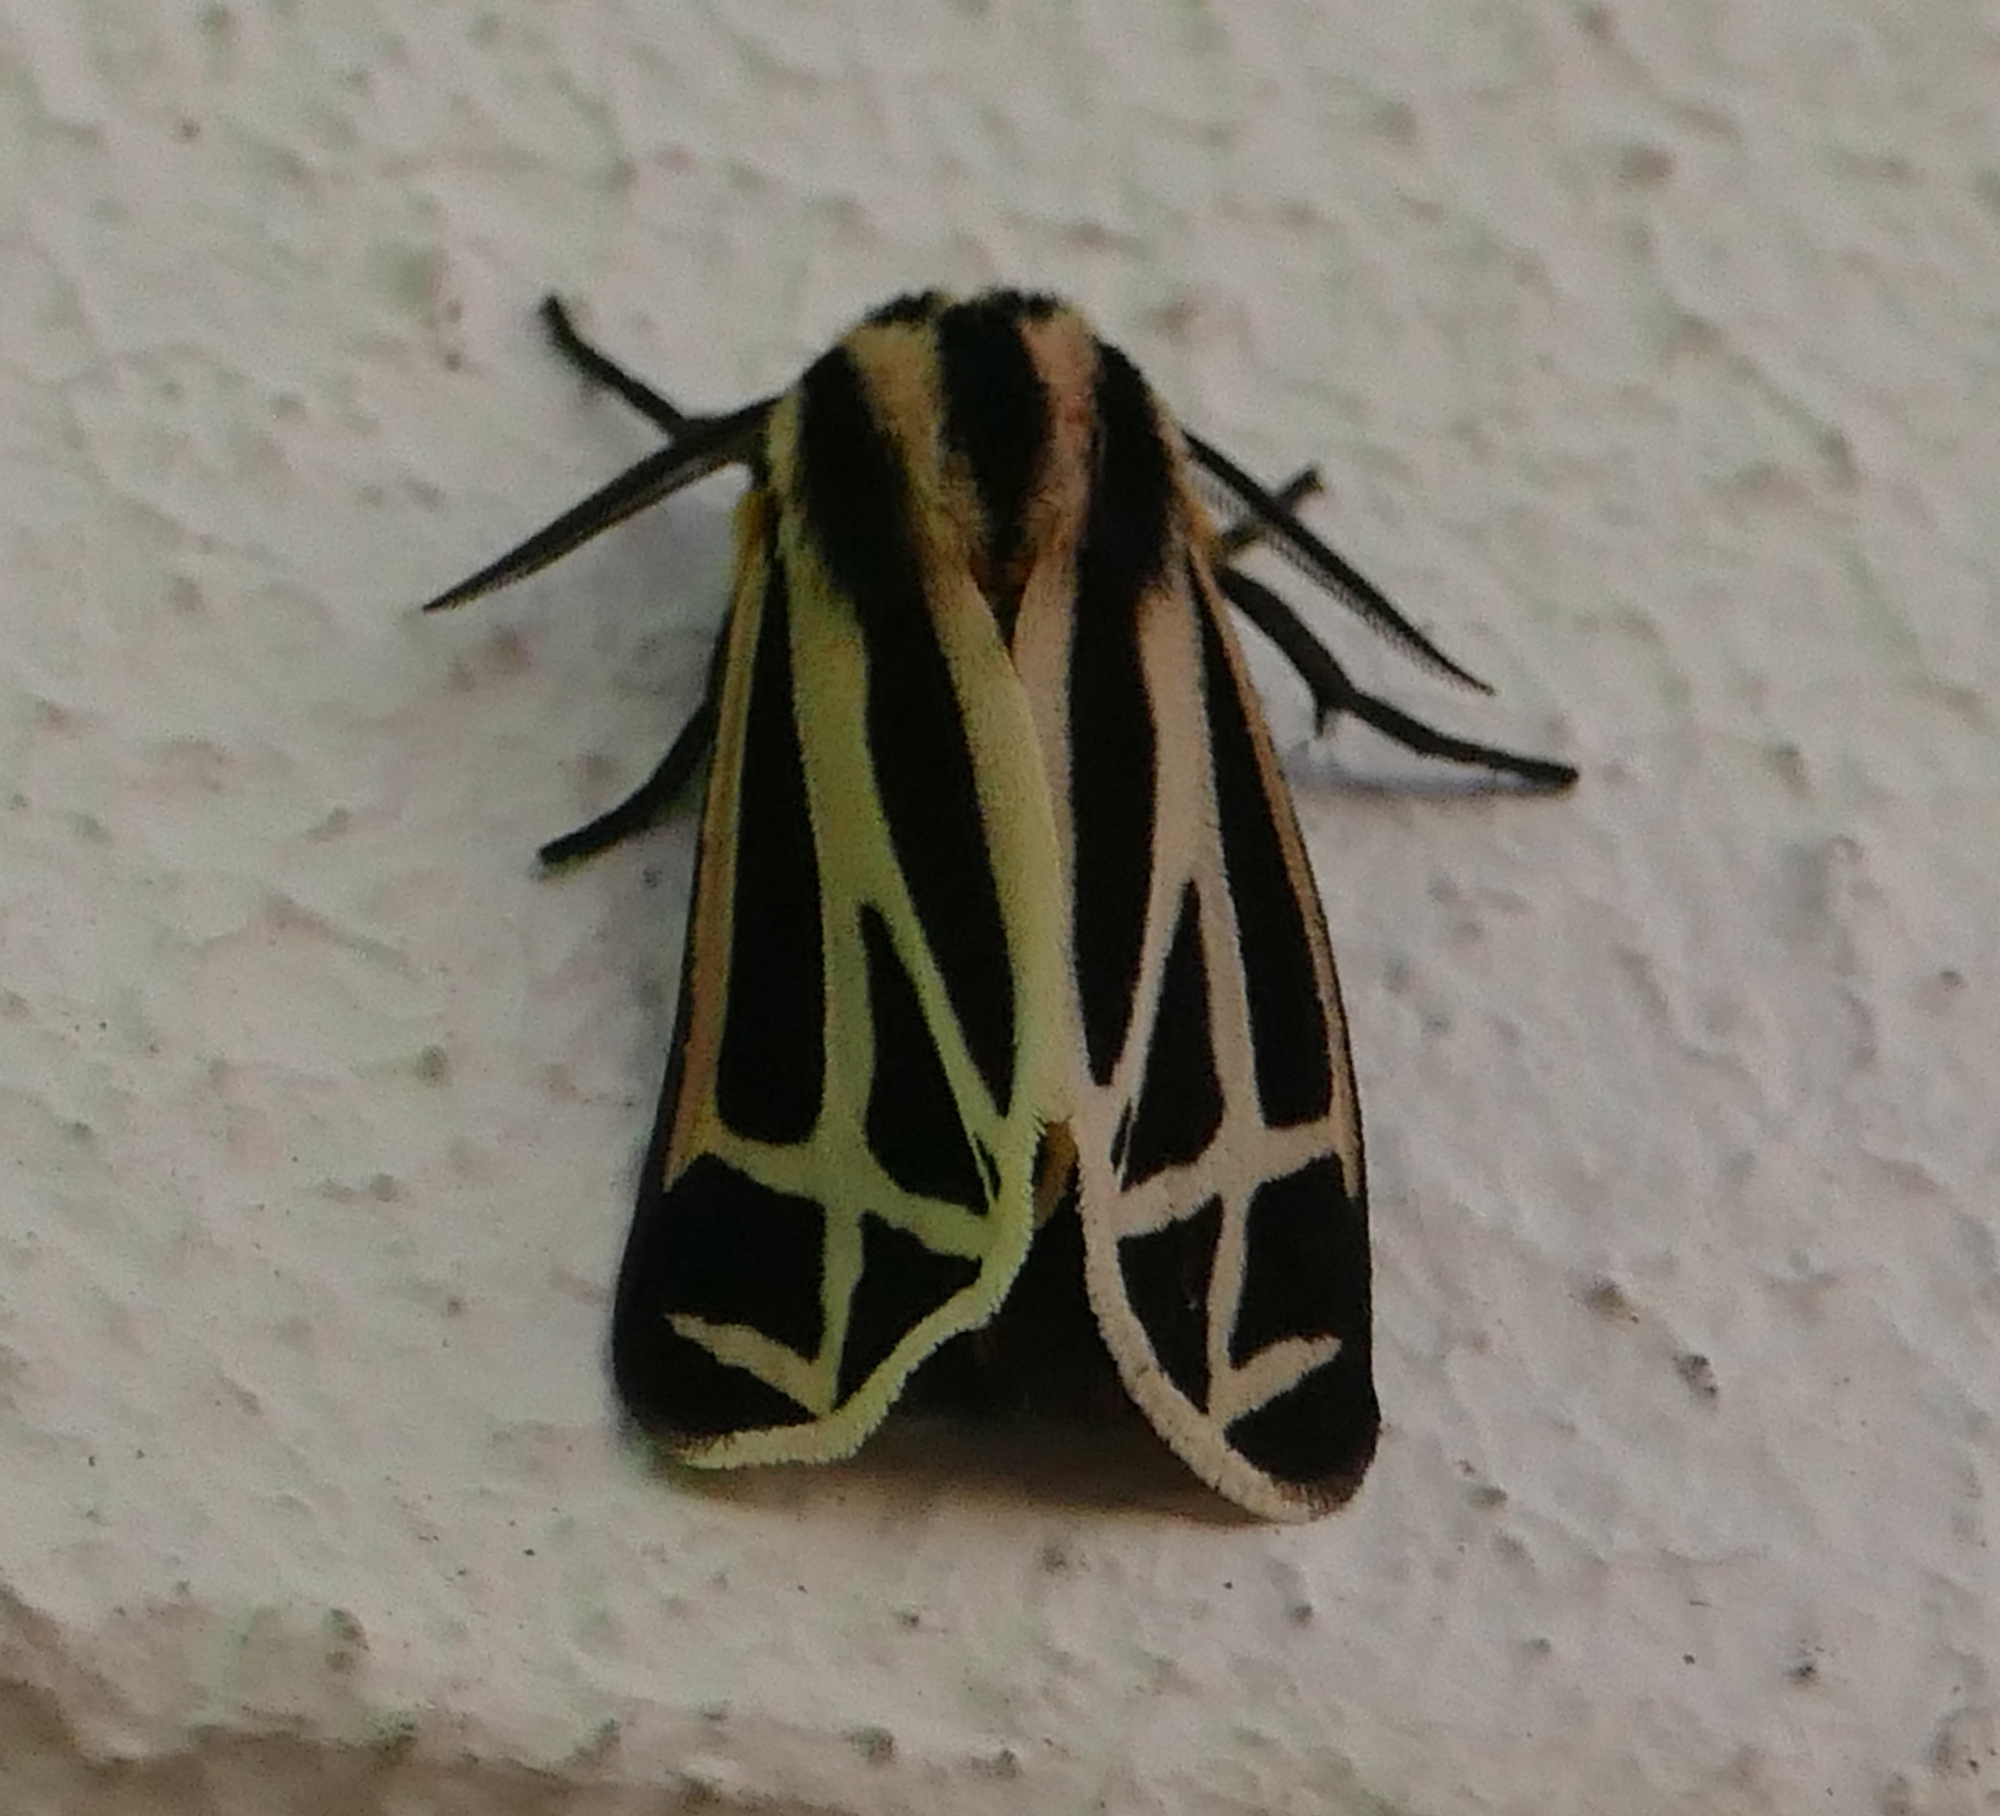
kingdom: Animalia
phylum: Arthropoda
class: Insecta
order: Lepidoptera
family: Erebidae
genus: Apantesis
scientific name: Apantesis phalerata
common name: Harnessed tiger moth
